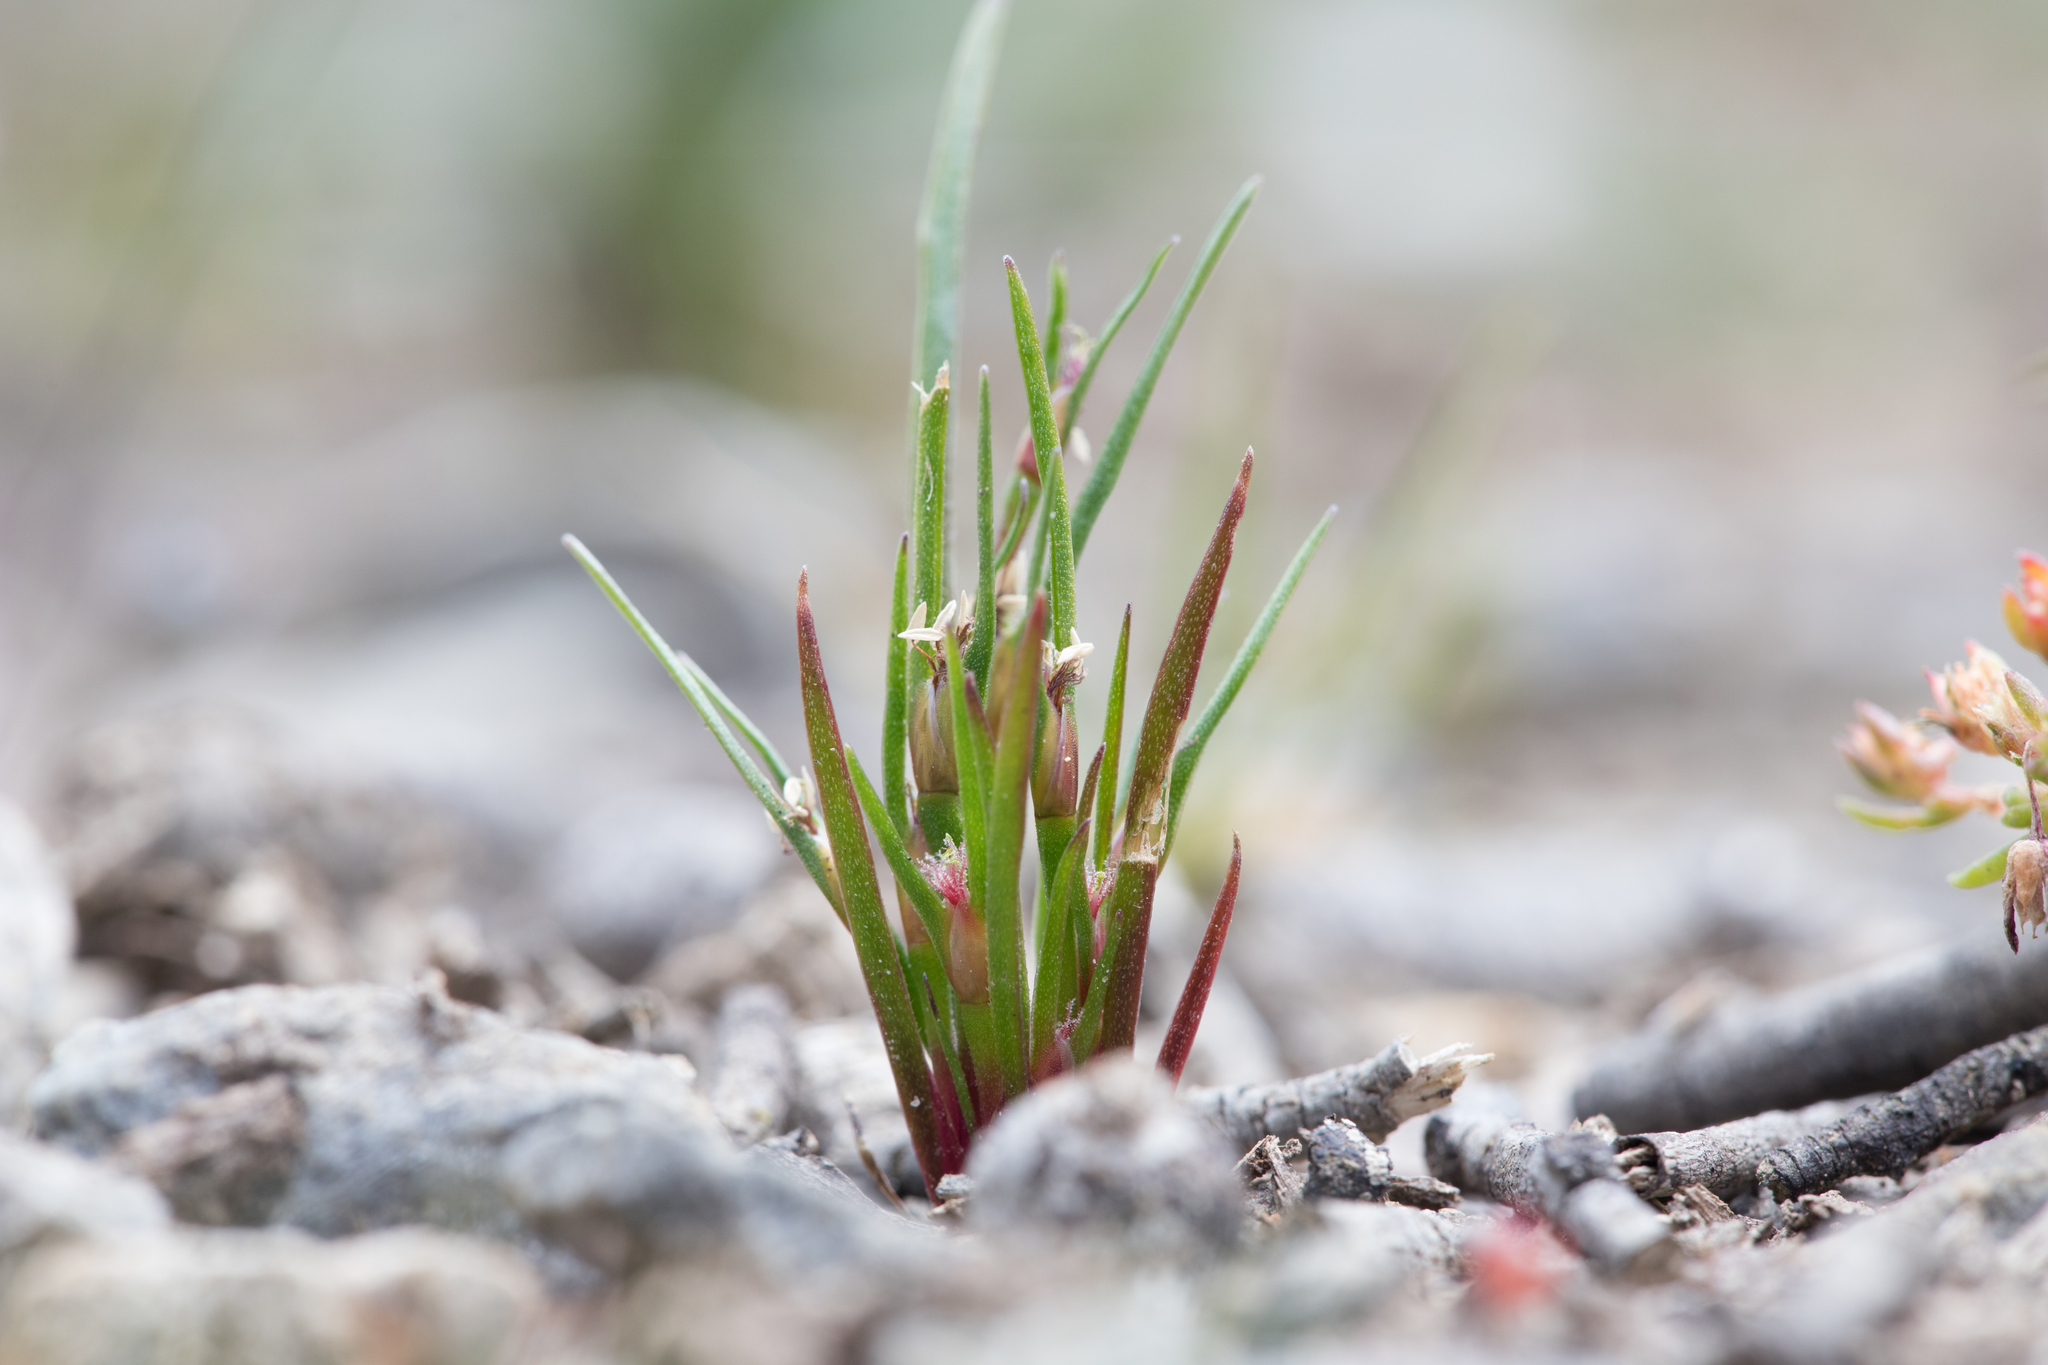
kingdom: Plantae
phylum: Tracheophyta
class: Liliopsida
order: Poales
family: Restionaceae
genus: Centrolepis
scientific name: Centrolepis aristata
